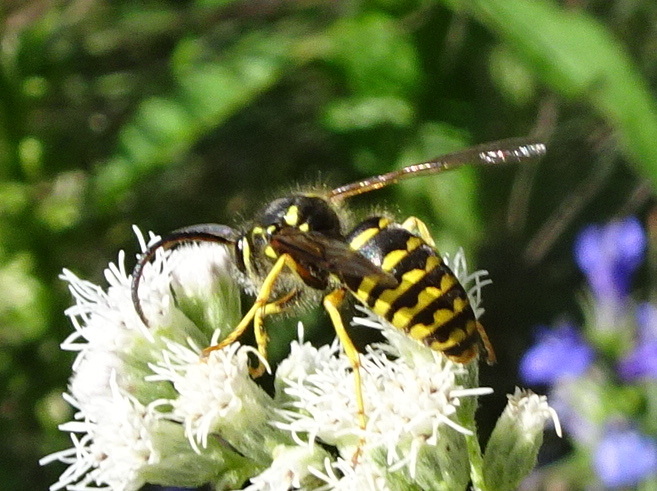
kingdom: Animalia
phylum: Arthropoda
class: Insecta
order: Hymenoptera
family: Vespidae
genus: Dolichovespula
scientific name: Dolichovespula arenaria
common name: Aerial yellowjacket
